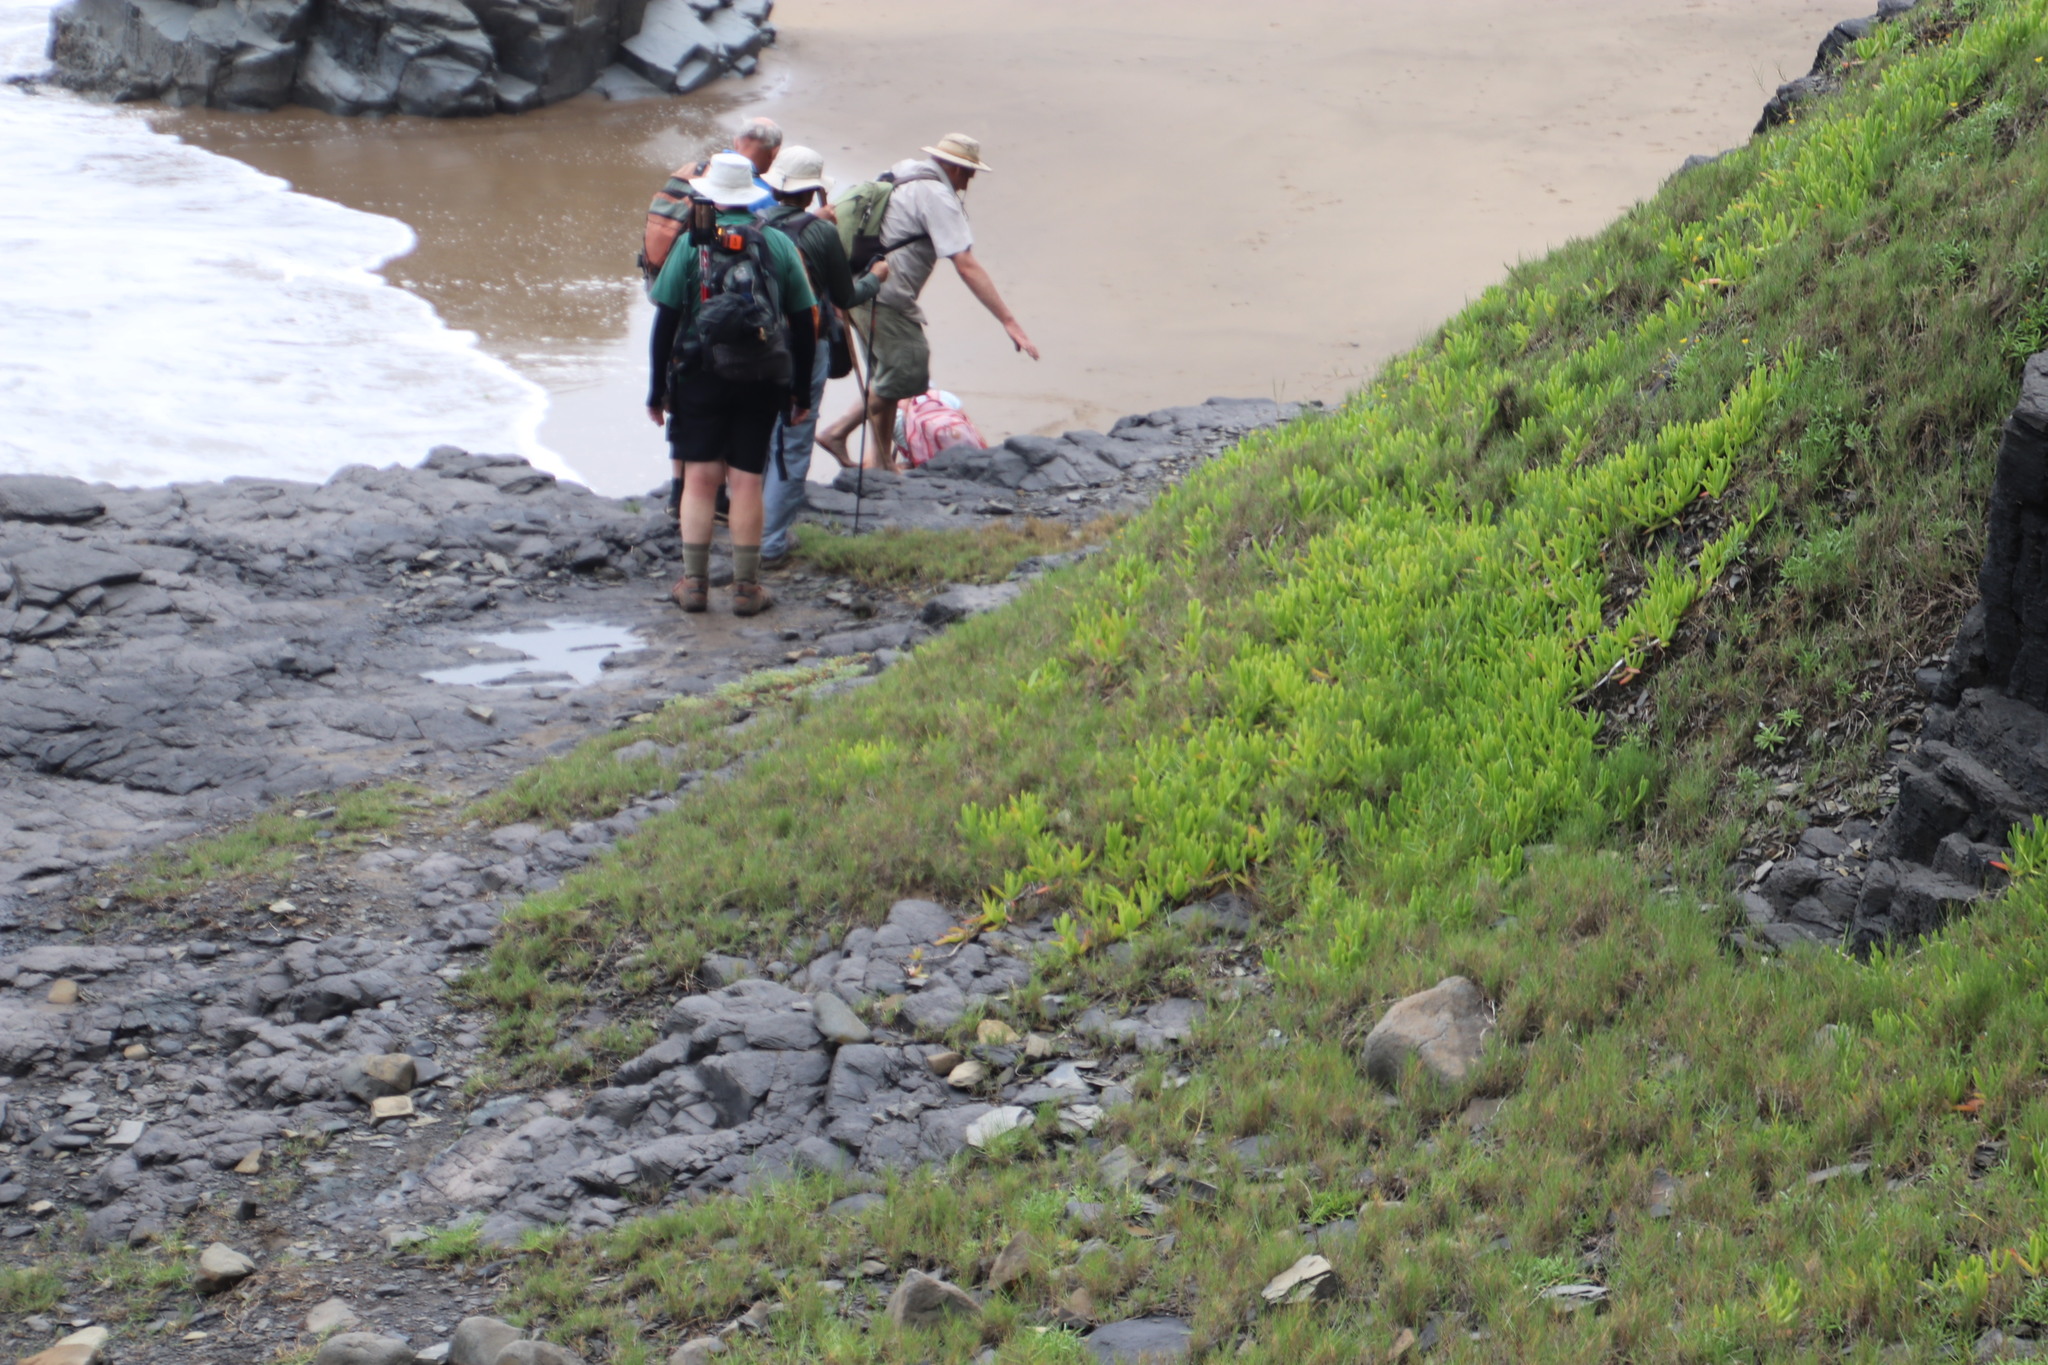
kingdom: Plantae
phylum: Tracheophyta
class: Magnoliopsida
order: Caryophyllales
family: Aizoaceae
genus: Carpobrotus
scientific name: Carpobrotus dimidiatus
